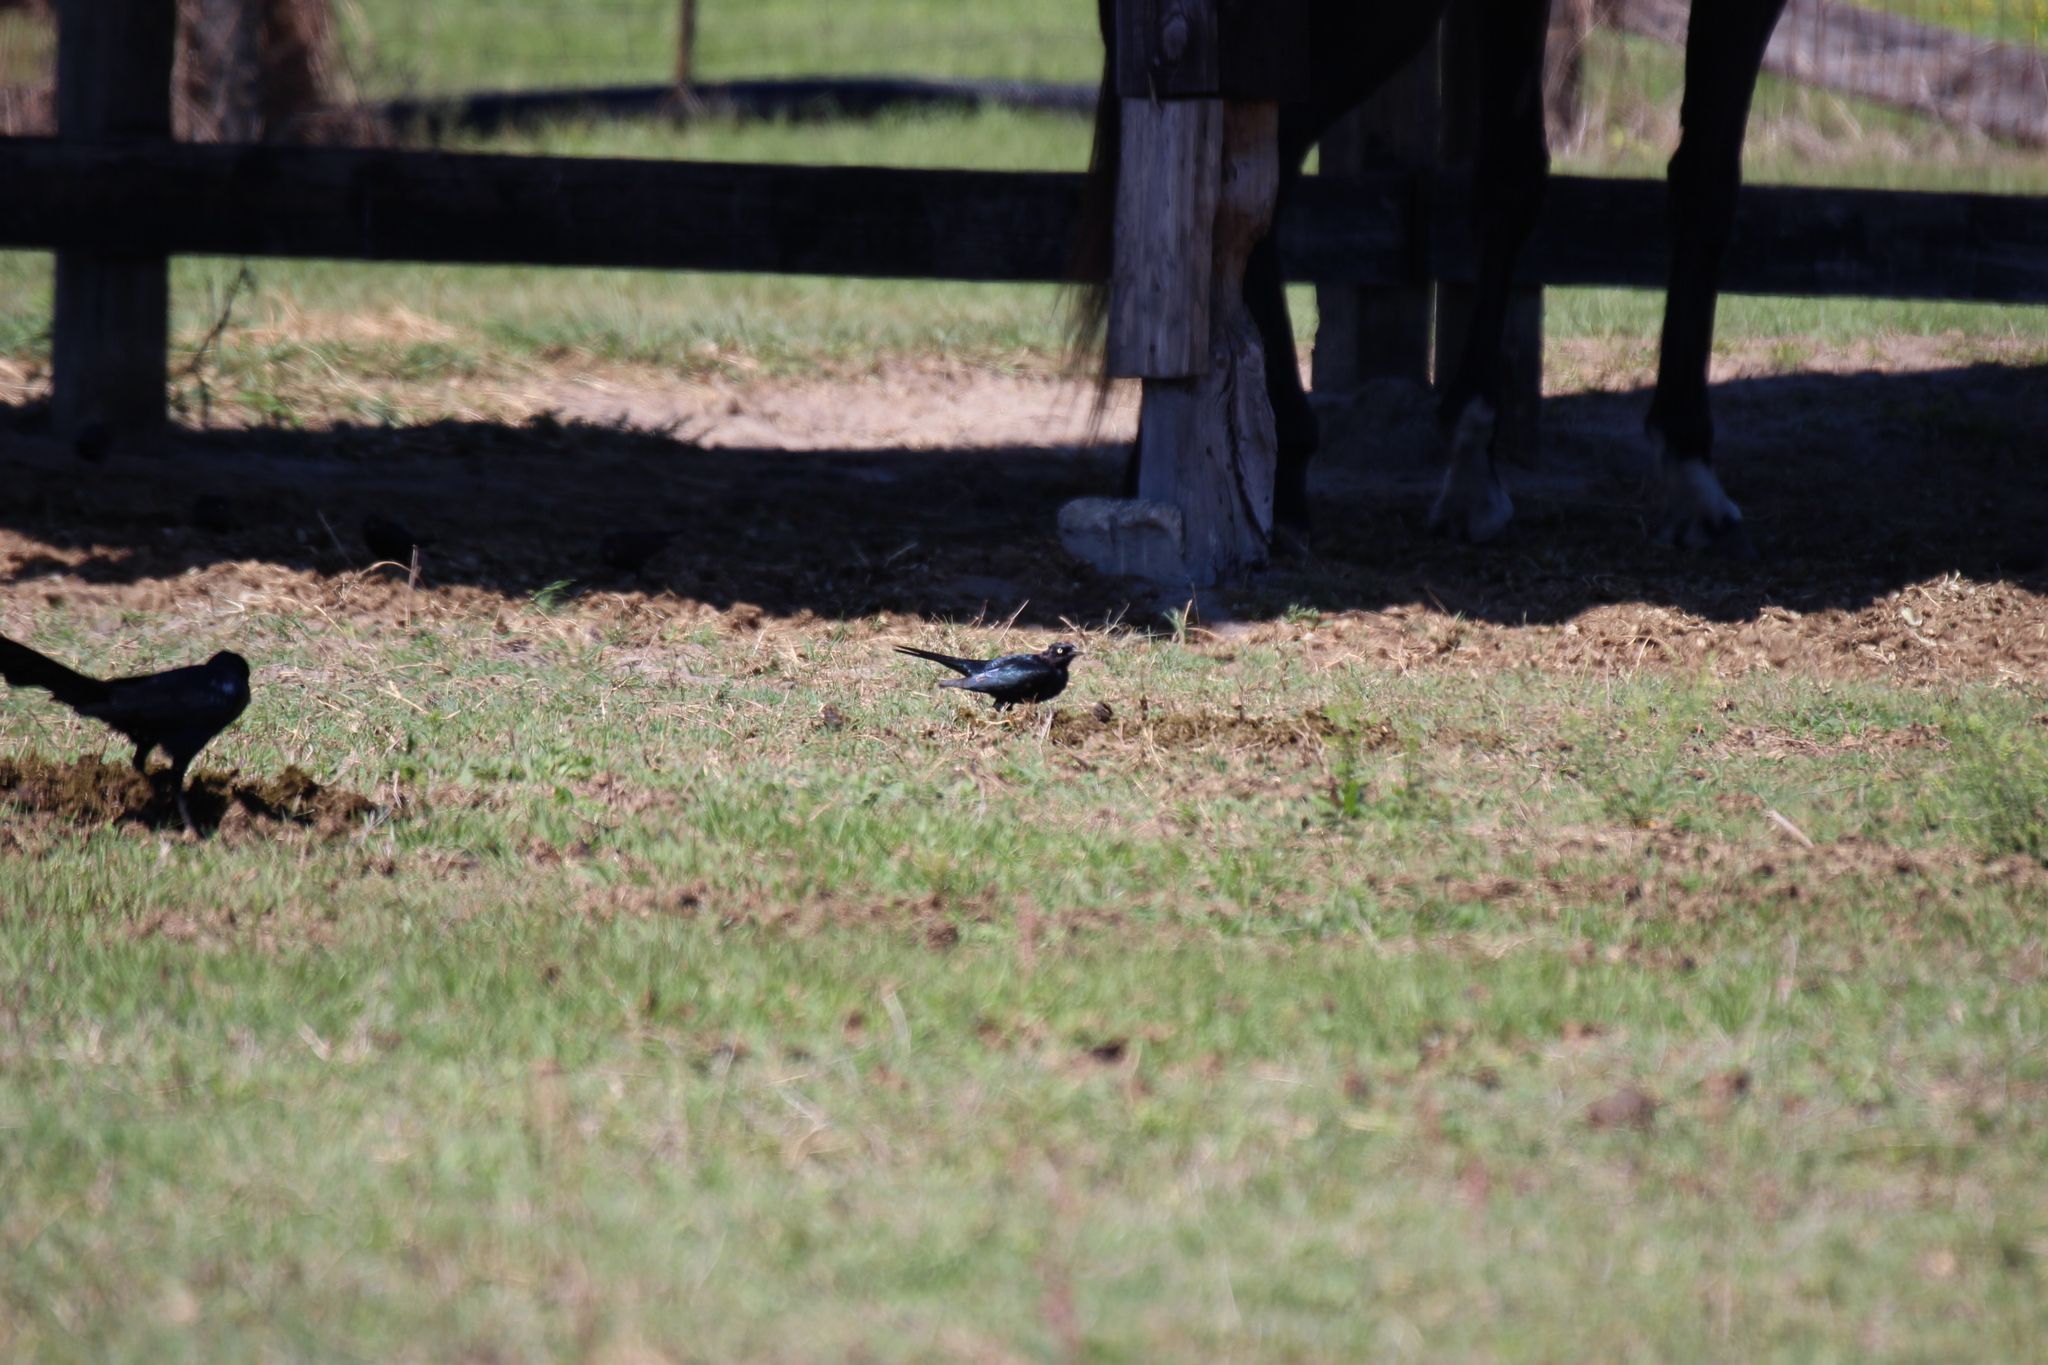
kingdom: Animalia
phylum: Chordata
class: Aves
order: Passeriformes
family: Icteridae
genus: Euphagus
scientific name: Euphagus cyanocephalus
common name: Brewer's blackbird
